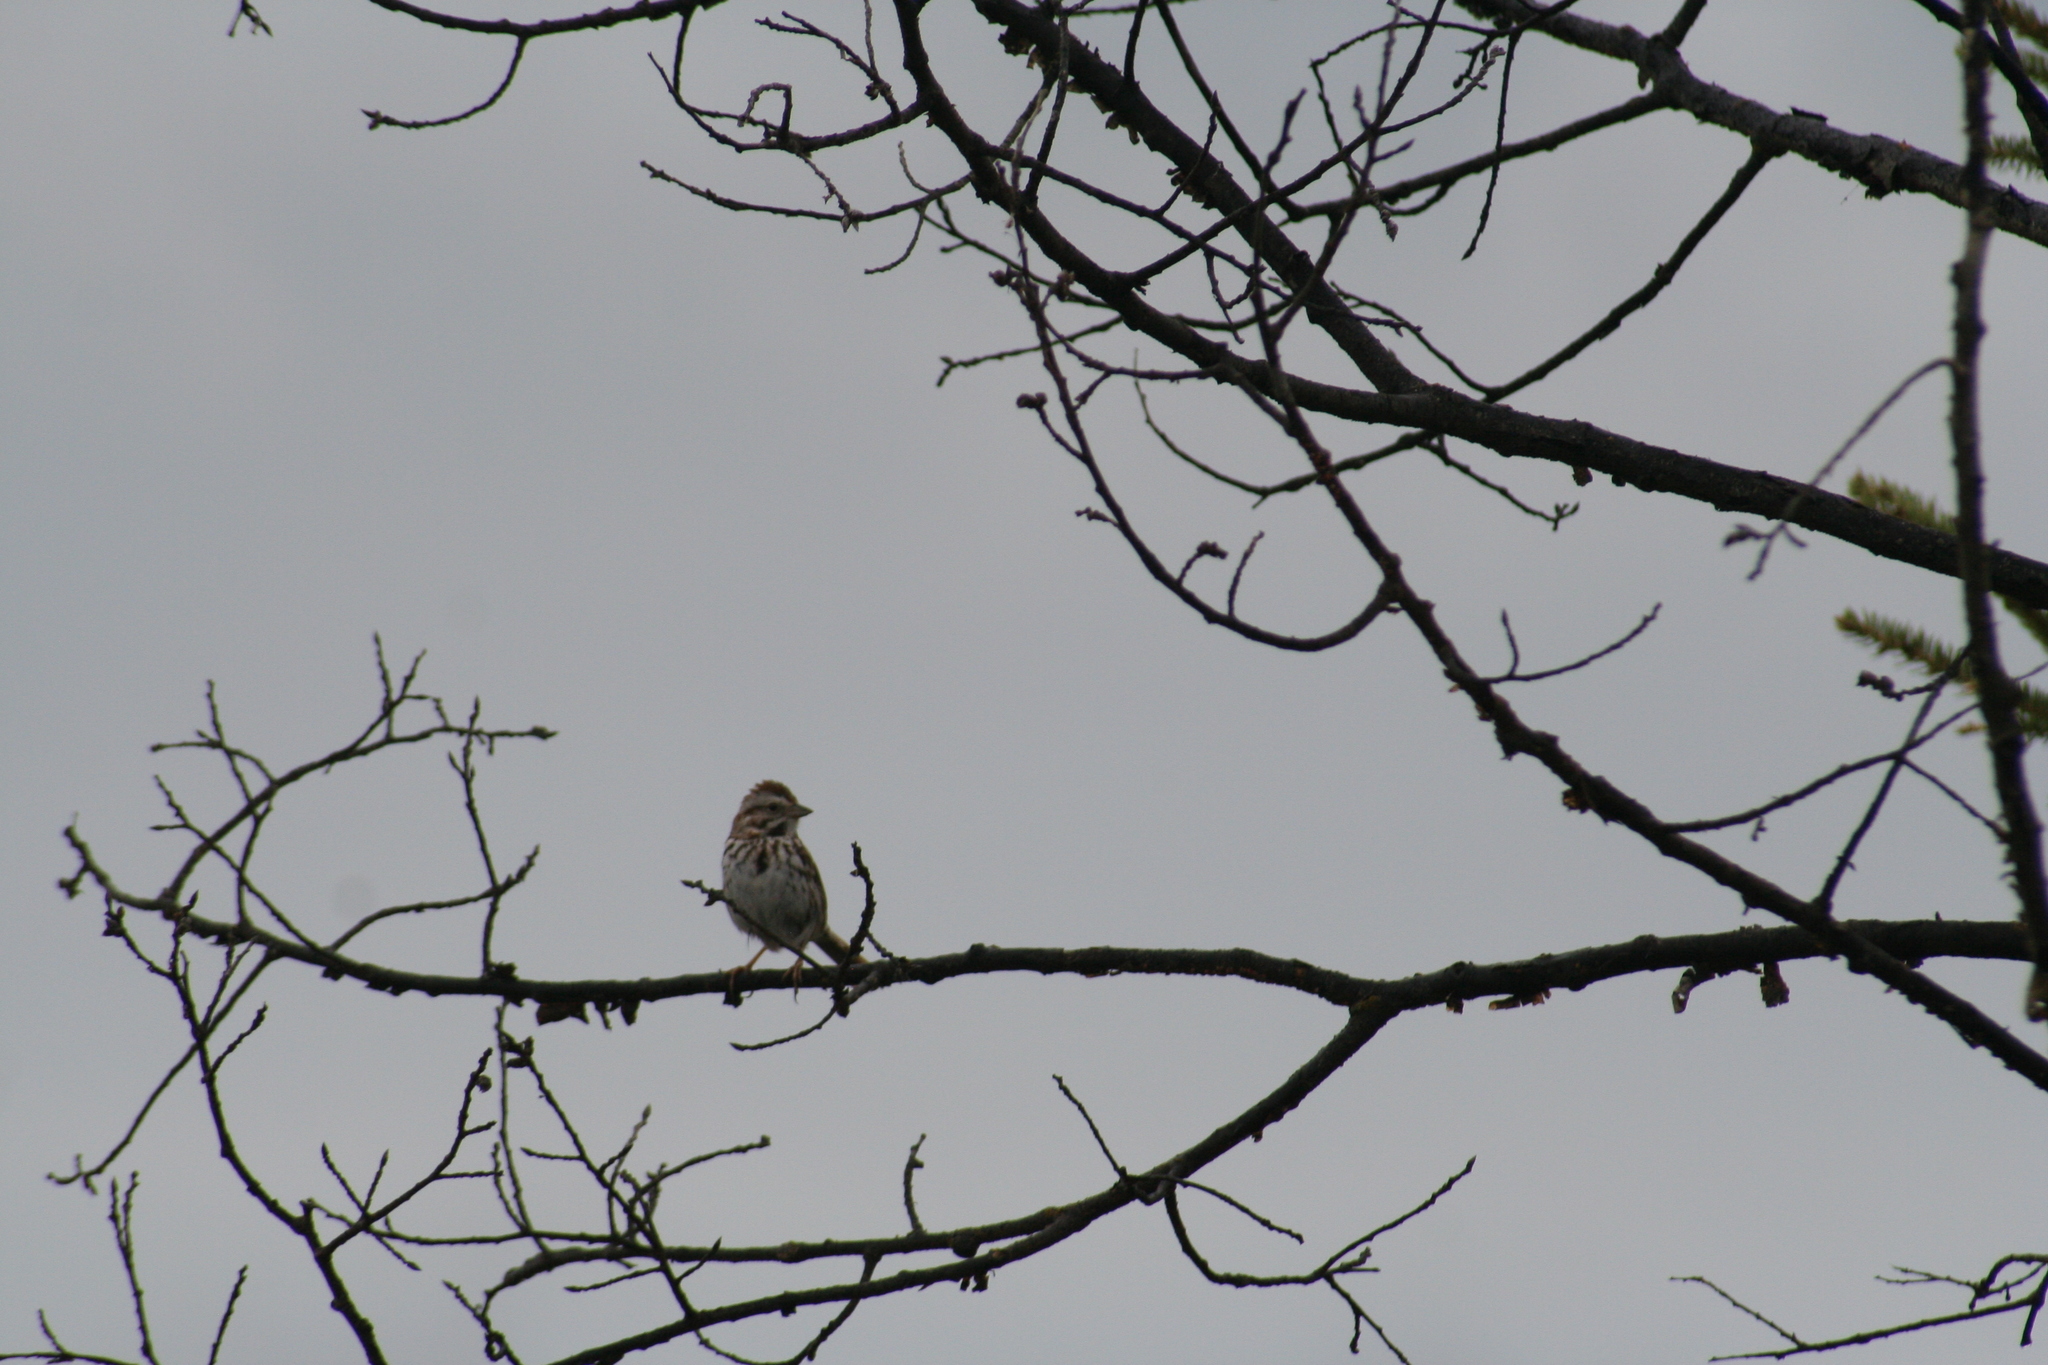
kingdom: Animalia
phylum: Chordata
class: Aves
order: Passeriformes
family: Passerellidae
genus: Melospiza
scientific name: Melospiza melodia
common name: Song sparrow
